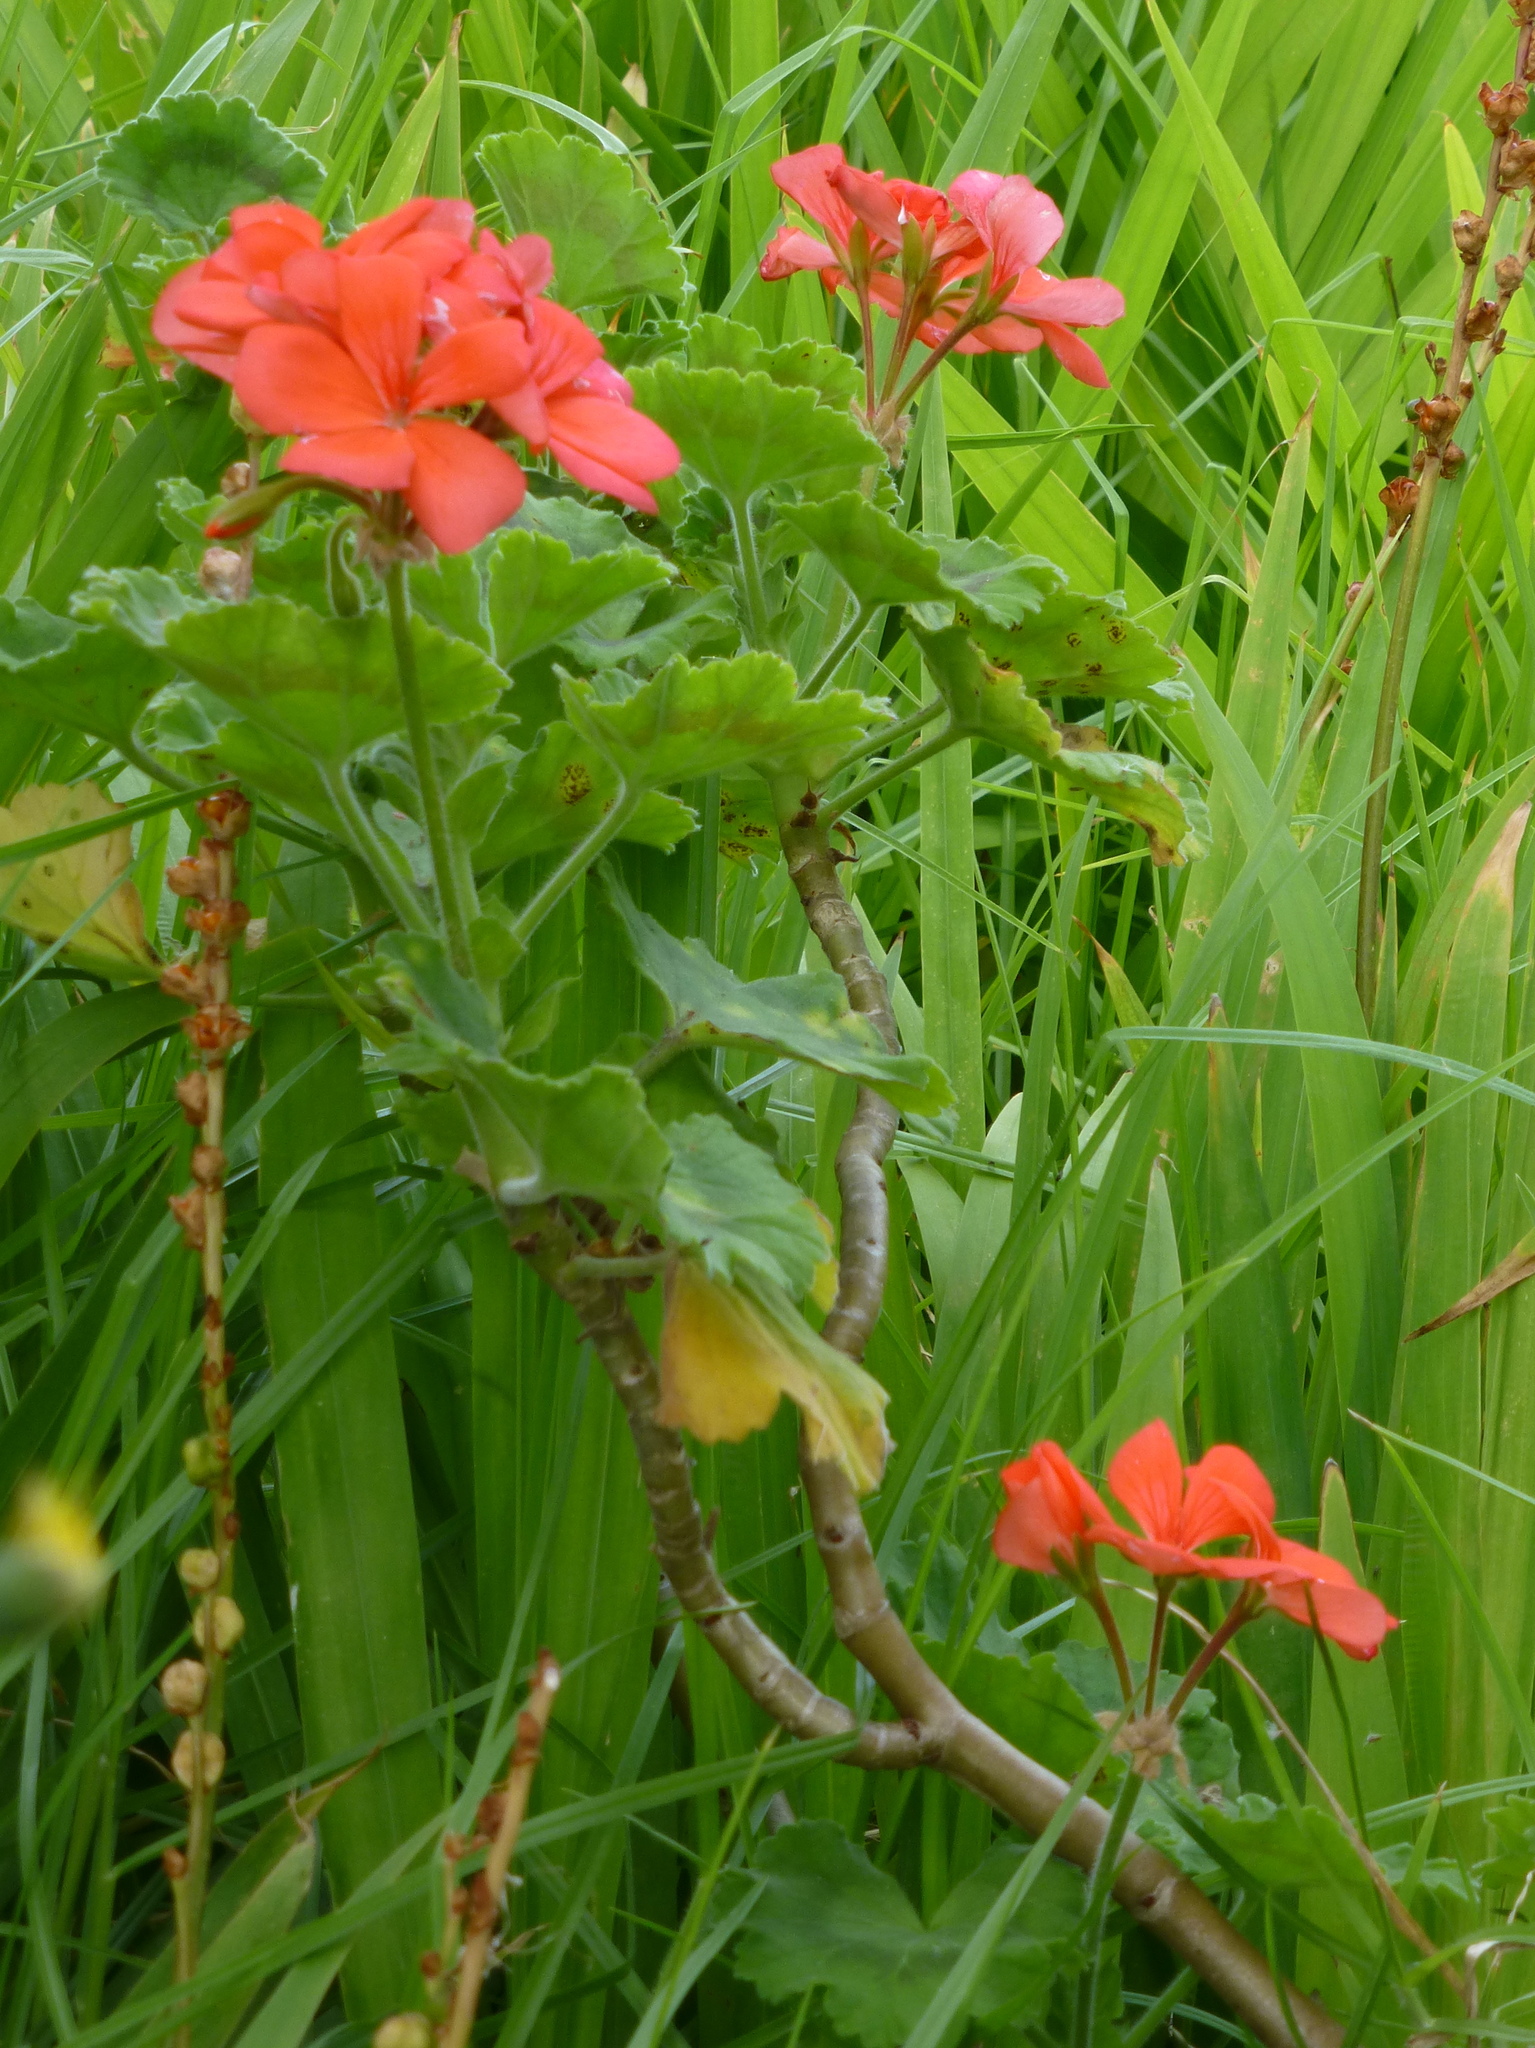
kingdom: Plantae
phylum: Tracheophyta
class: Magnoliopsida
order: Geraniales
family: Geraniaceae
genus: Pelargonium
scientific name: Pelargonium hybridum
